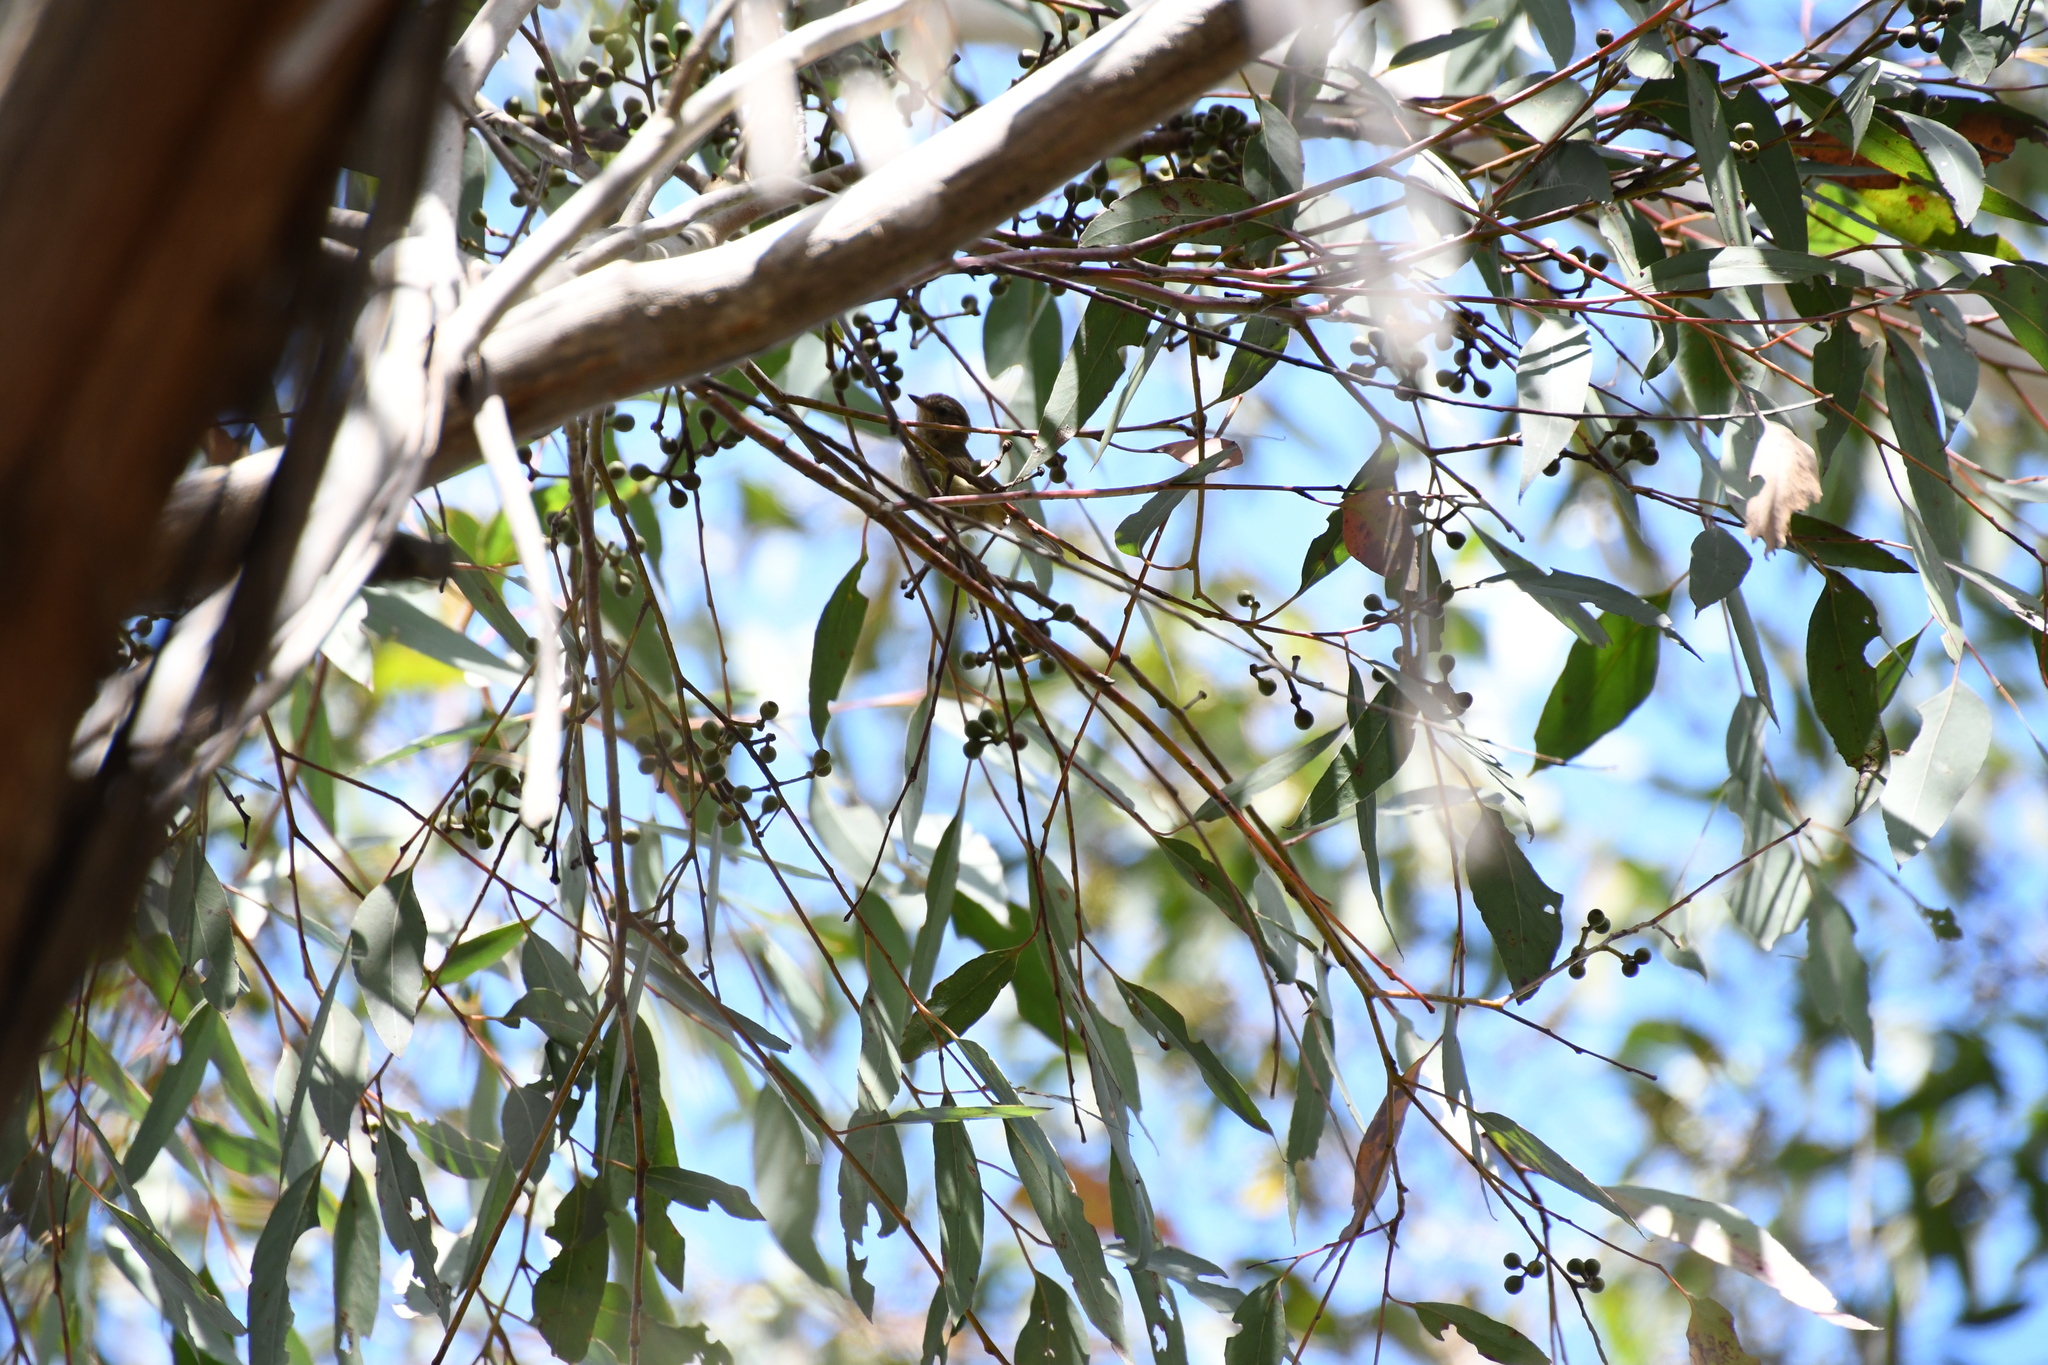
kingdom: Animalia
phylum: Chordata
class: Aves
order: Passeriformes
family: Acanthizidae
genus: Acanthiza
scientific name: Acanthiza lineata
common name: Striated thornbill
